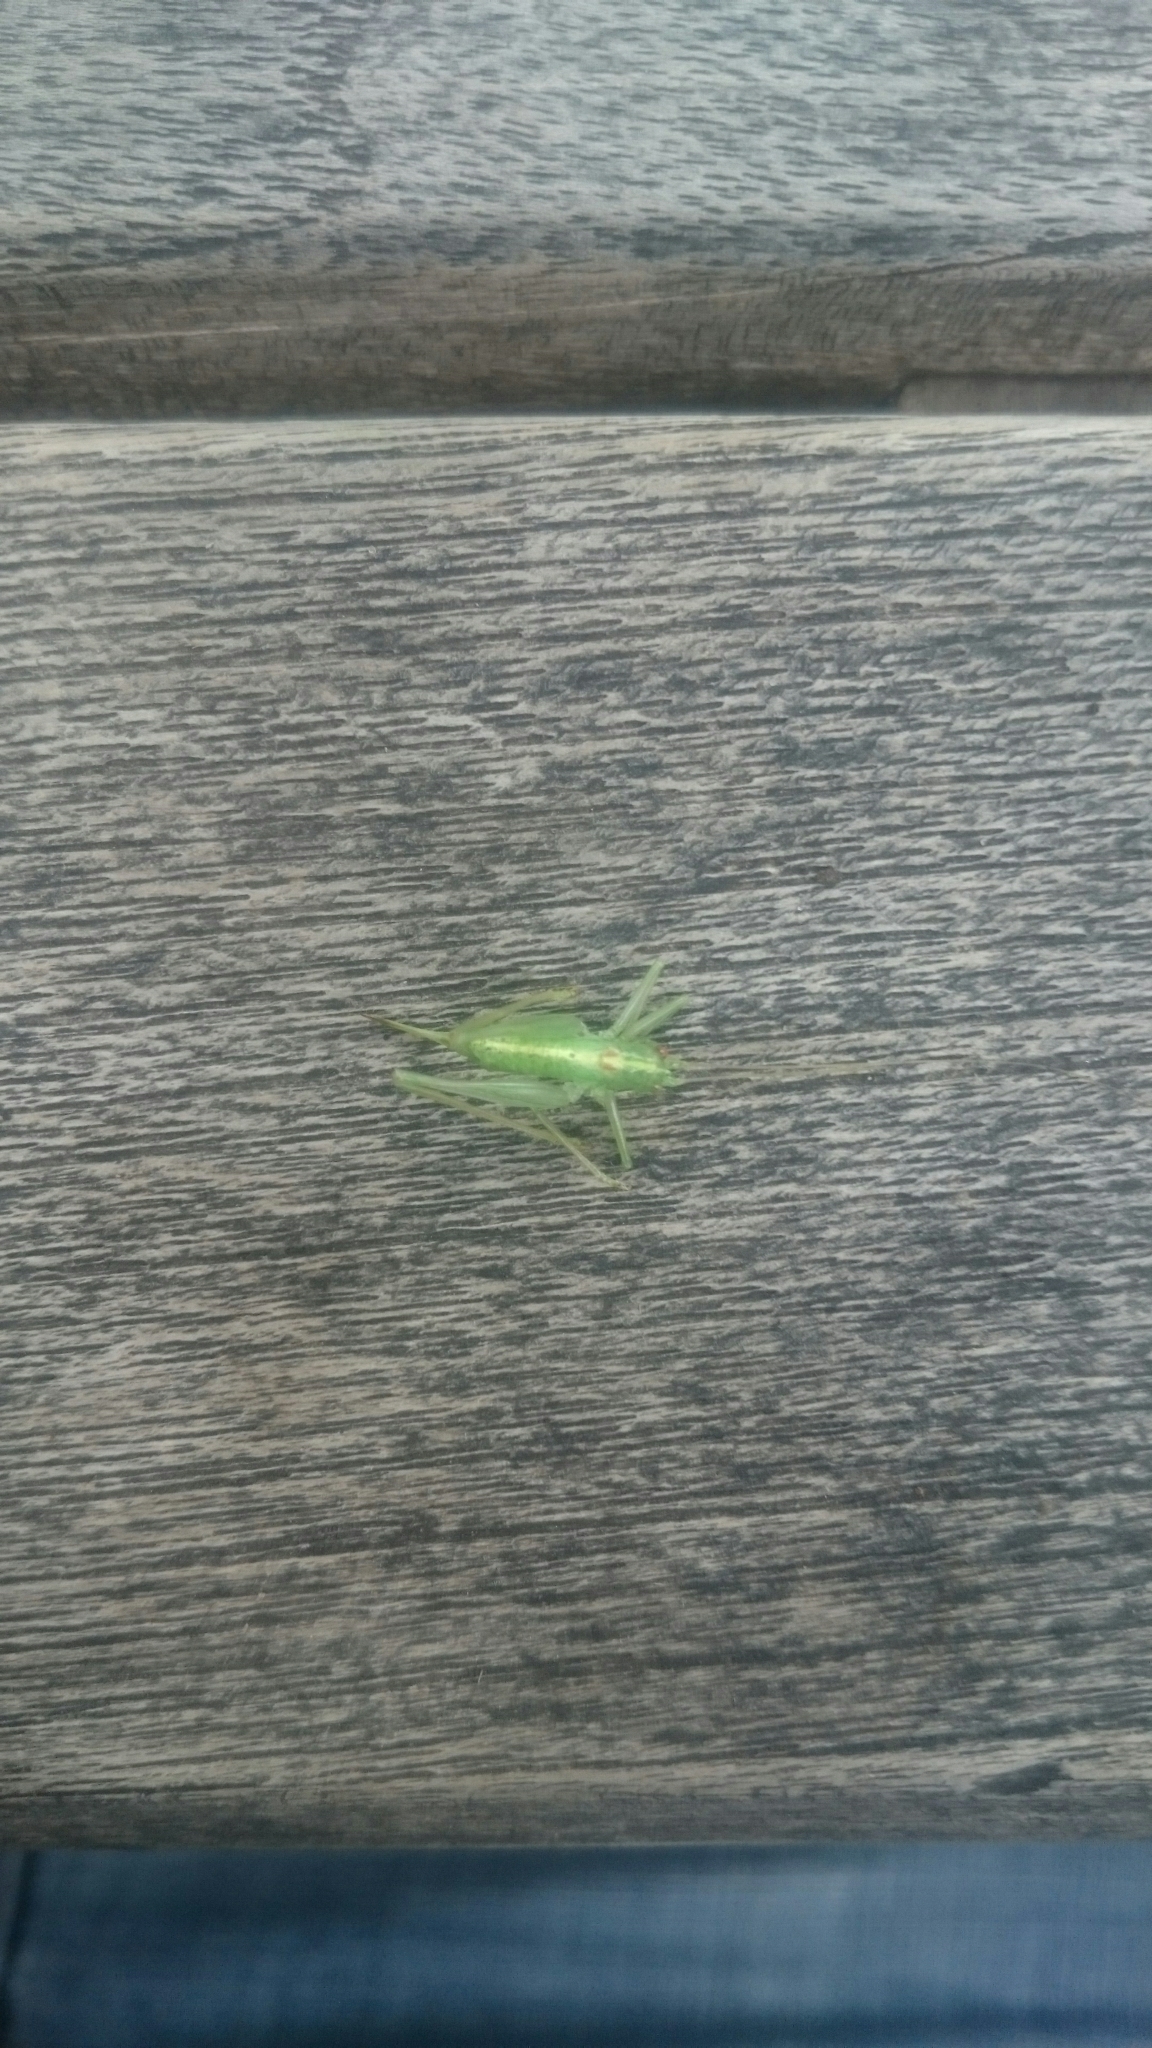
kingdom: Animalia
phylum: Arthropoda
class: Insecta
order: Orthoptera
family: Tettigoniidae
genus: Meconema
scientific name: Meconema meridionale
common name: Southern oak bush-cricket
